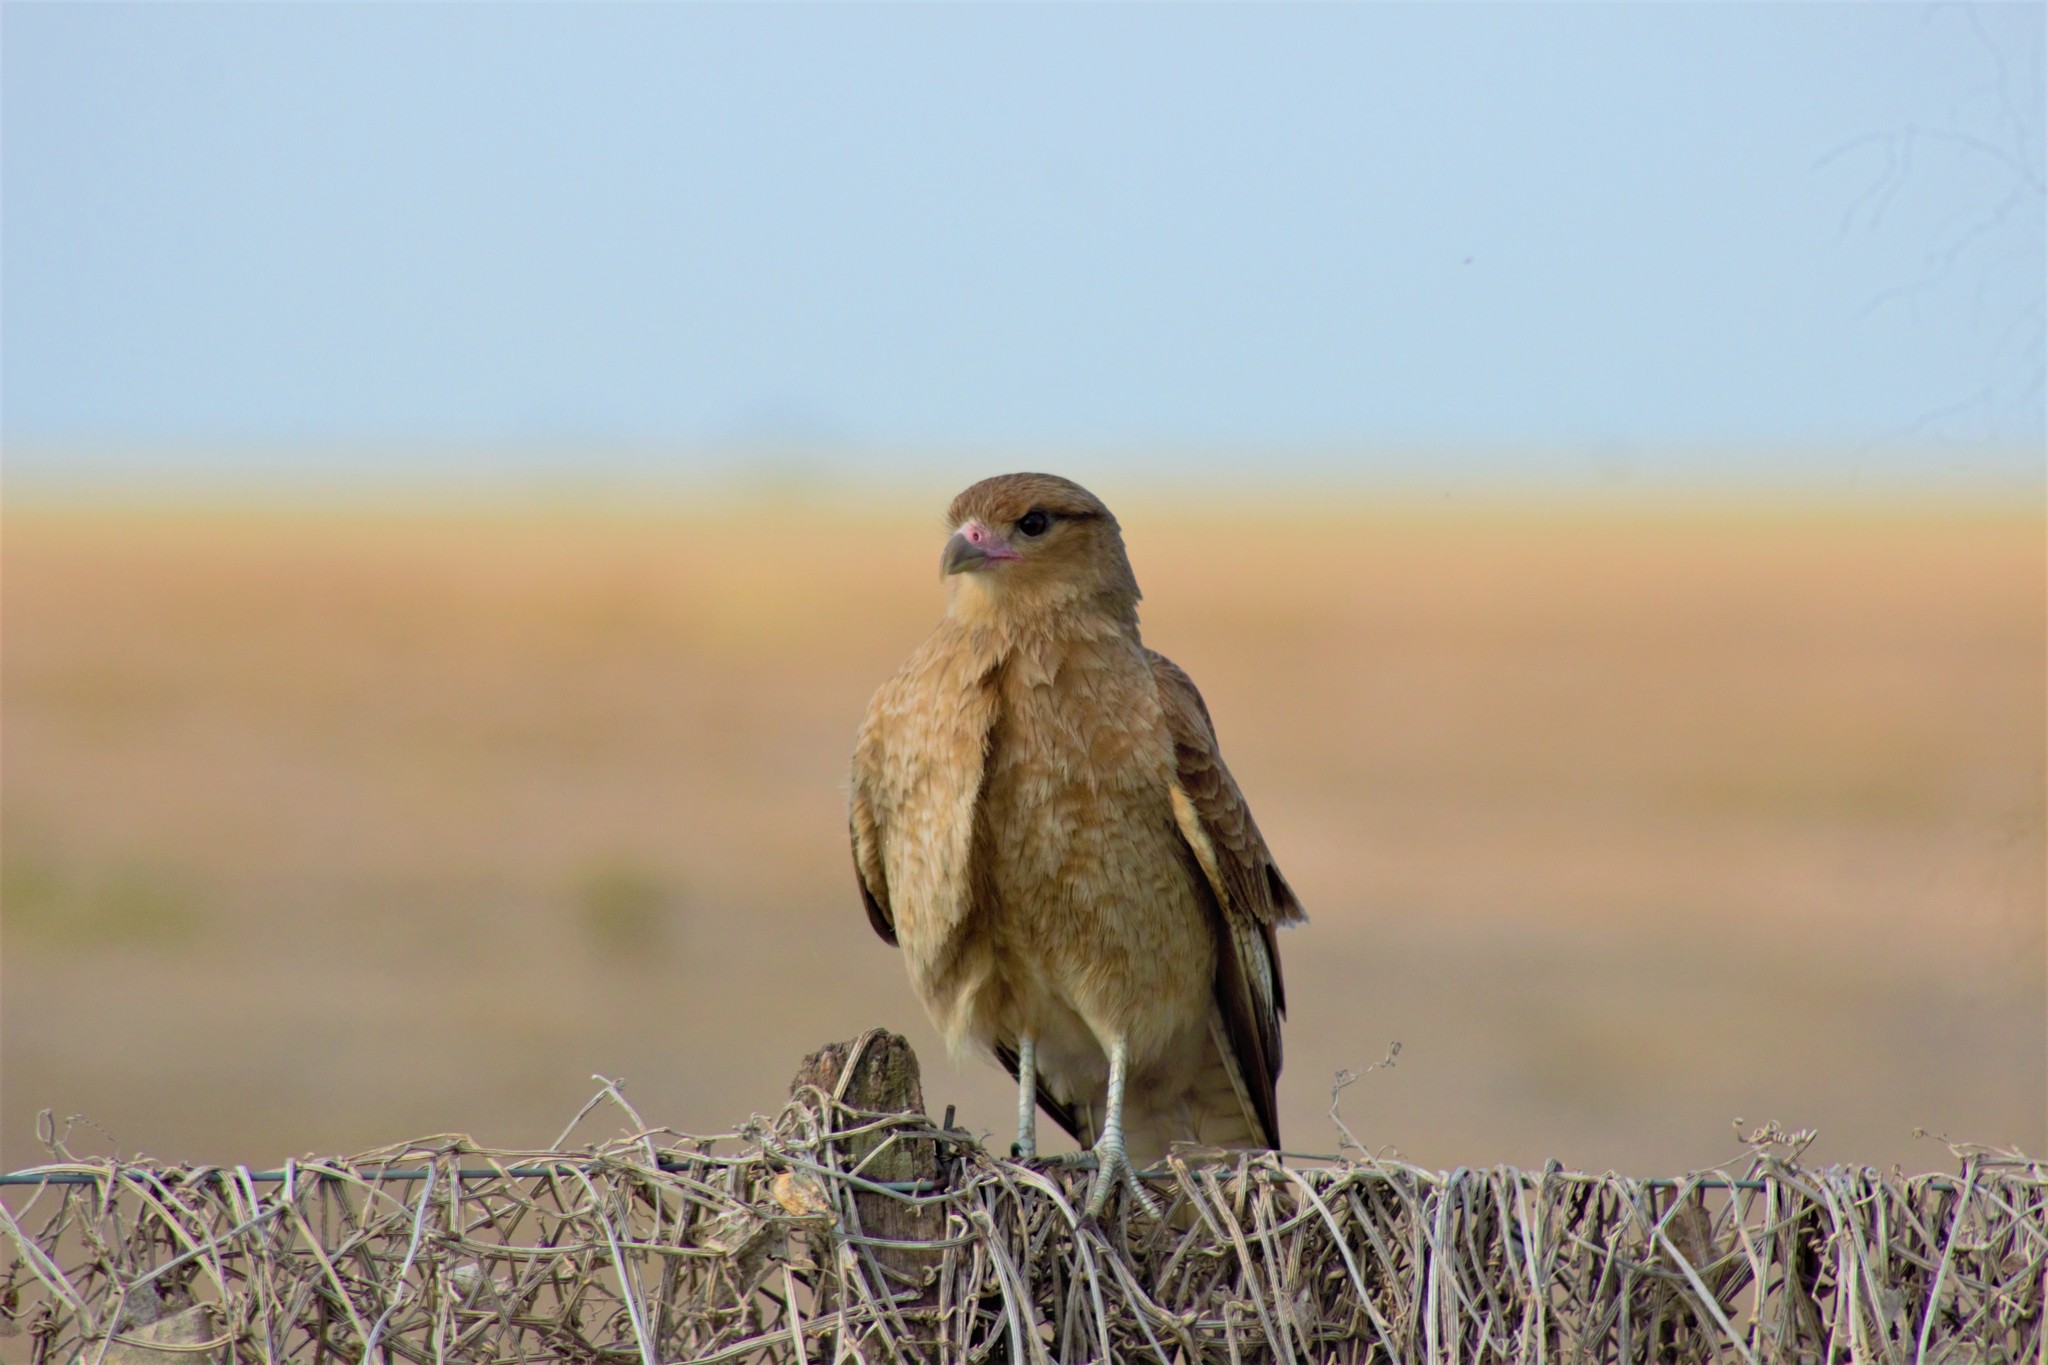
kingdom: Animalia
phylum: Chordata
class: Aves
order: Falconiformes
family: Falconidae
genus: Daptrius
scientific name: Daptrius
